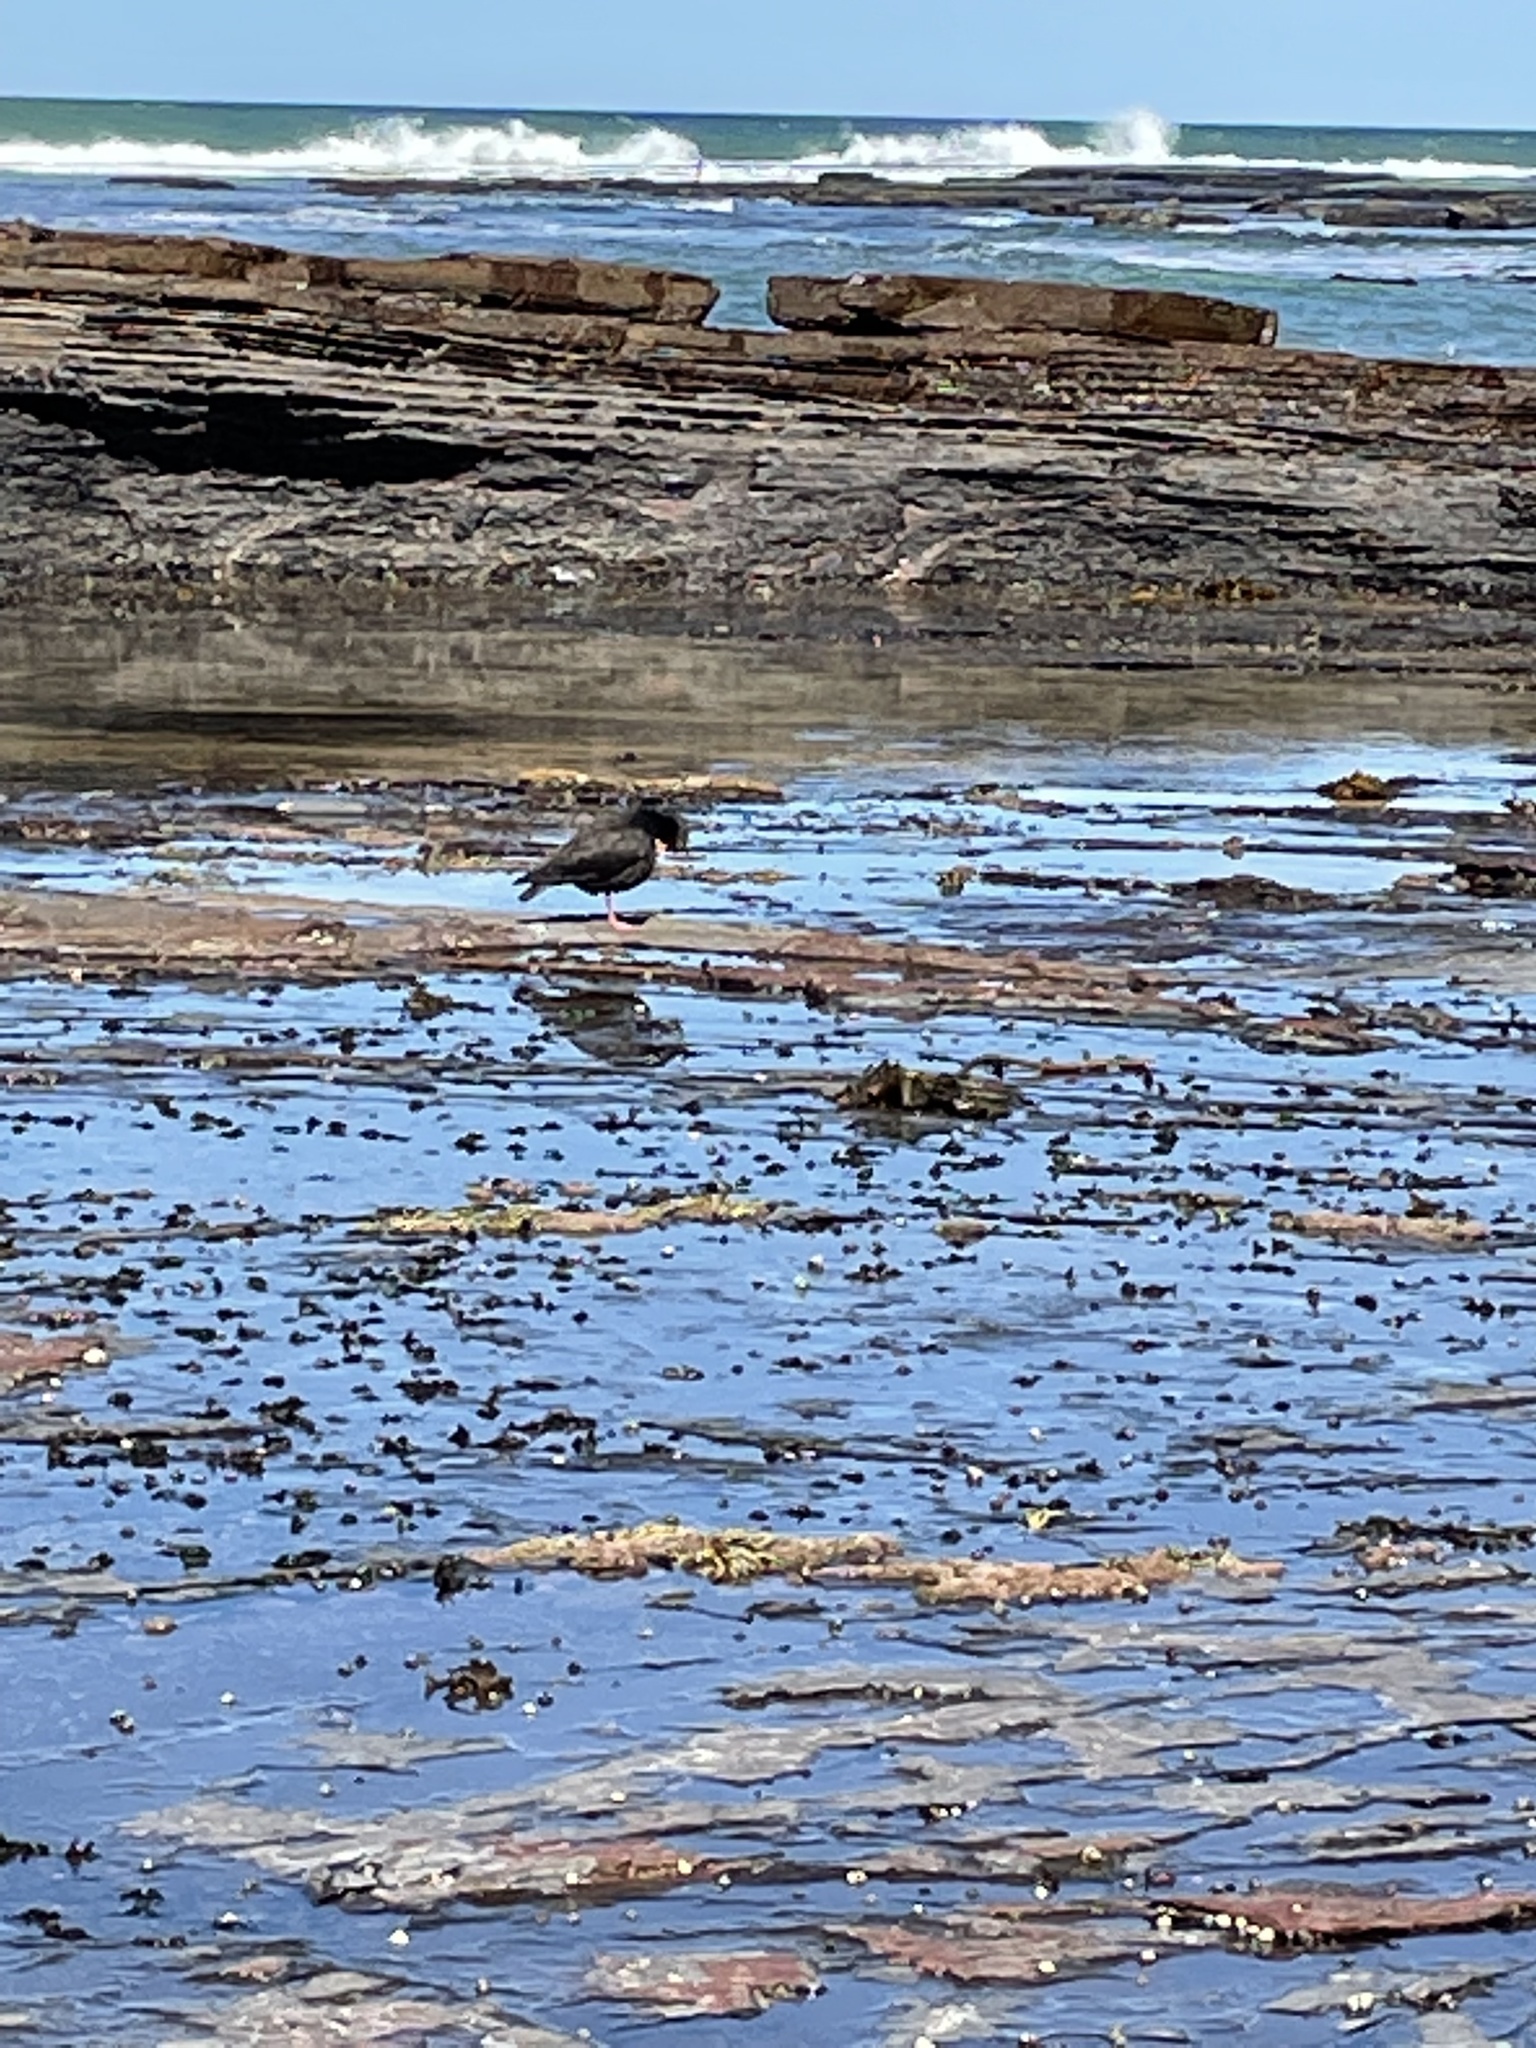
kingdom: Animalia
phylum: Chordata
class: Aves
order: Charadriiformes
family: Haematopodidae
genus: Haematopus
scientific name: Haematopus fuliginosus
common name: Sooty oystercatcher
